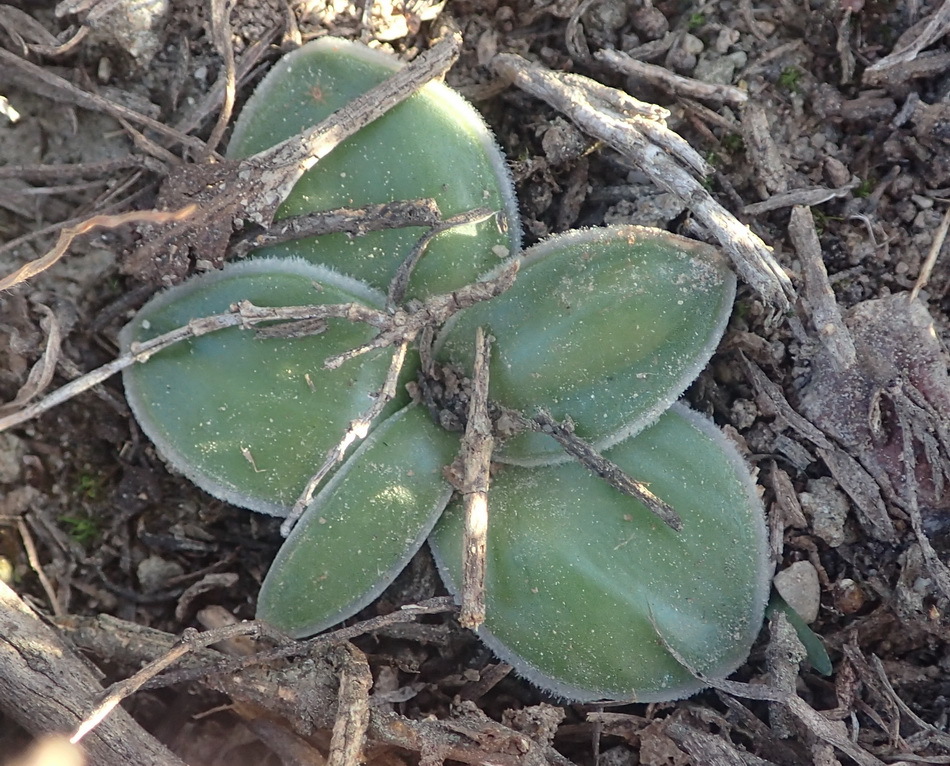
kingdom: Plantae
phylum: Tracheophyta
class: Liliopsida
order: Asparagales
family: Asparagaceae
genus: Drimia
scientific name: Drimia ciliata
